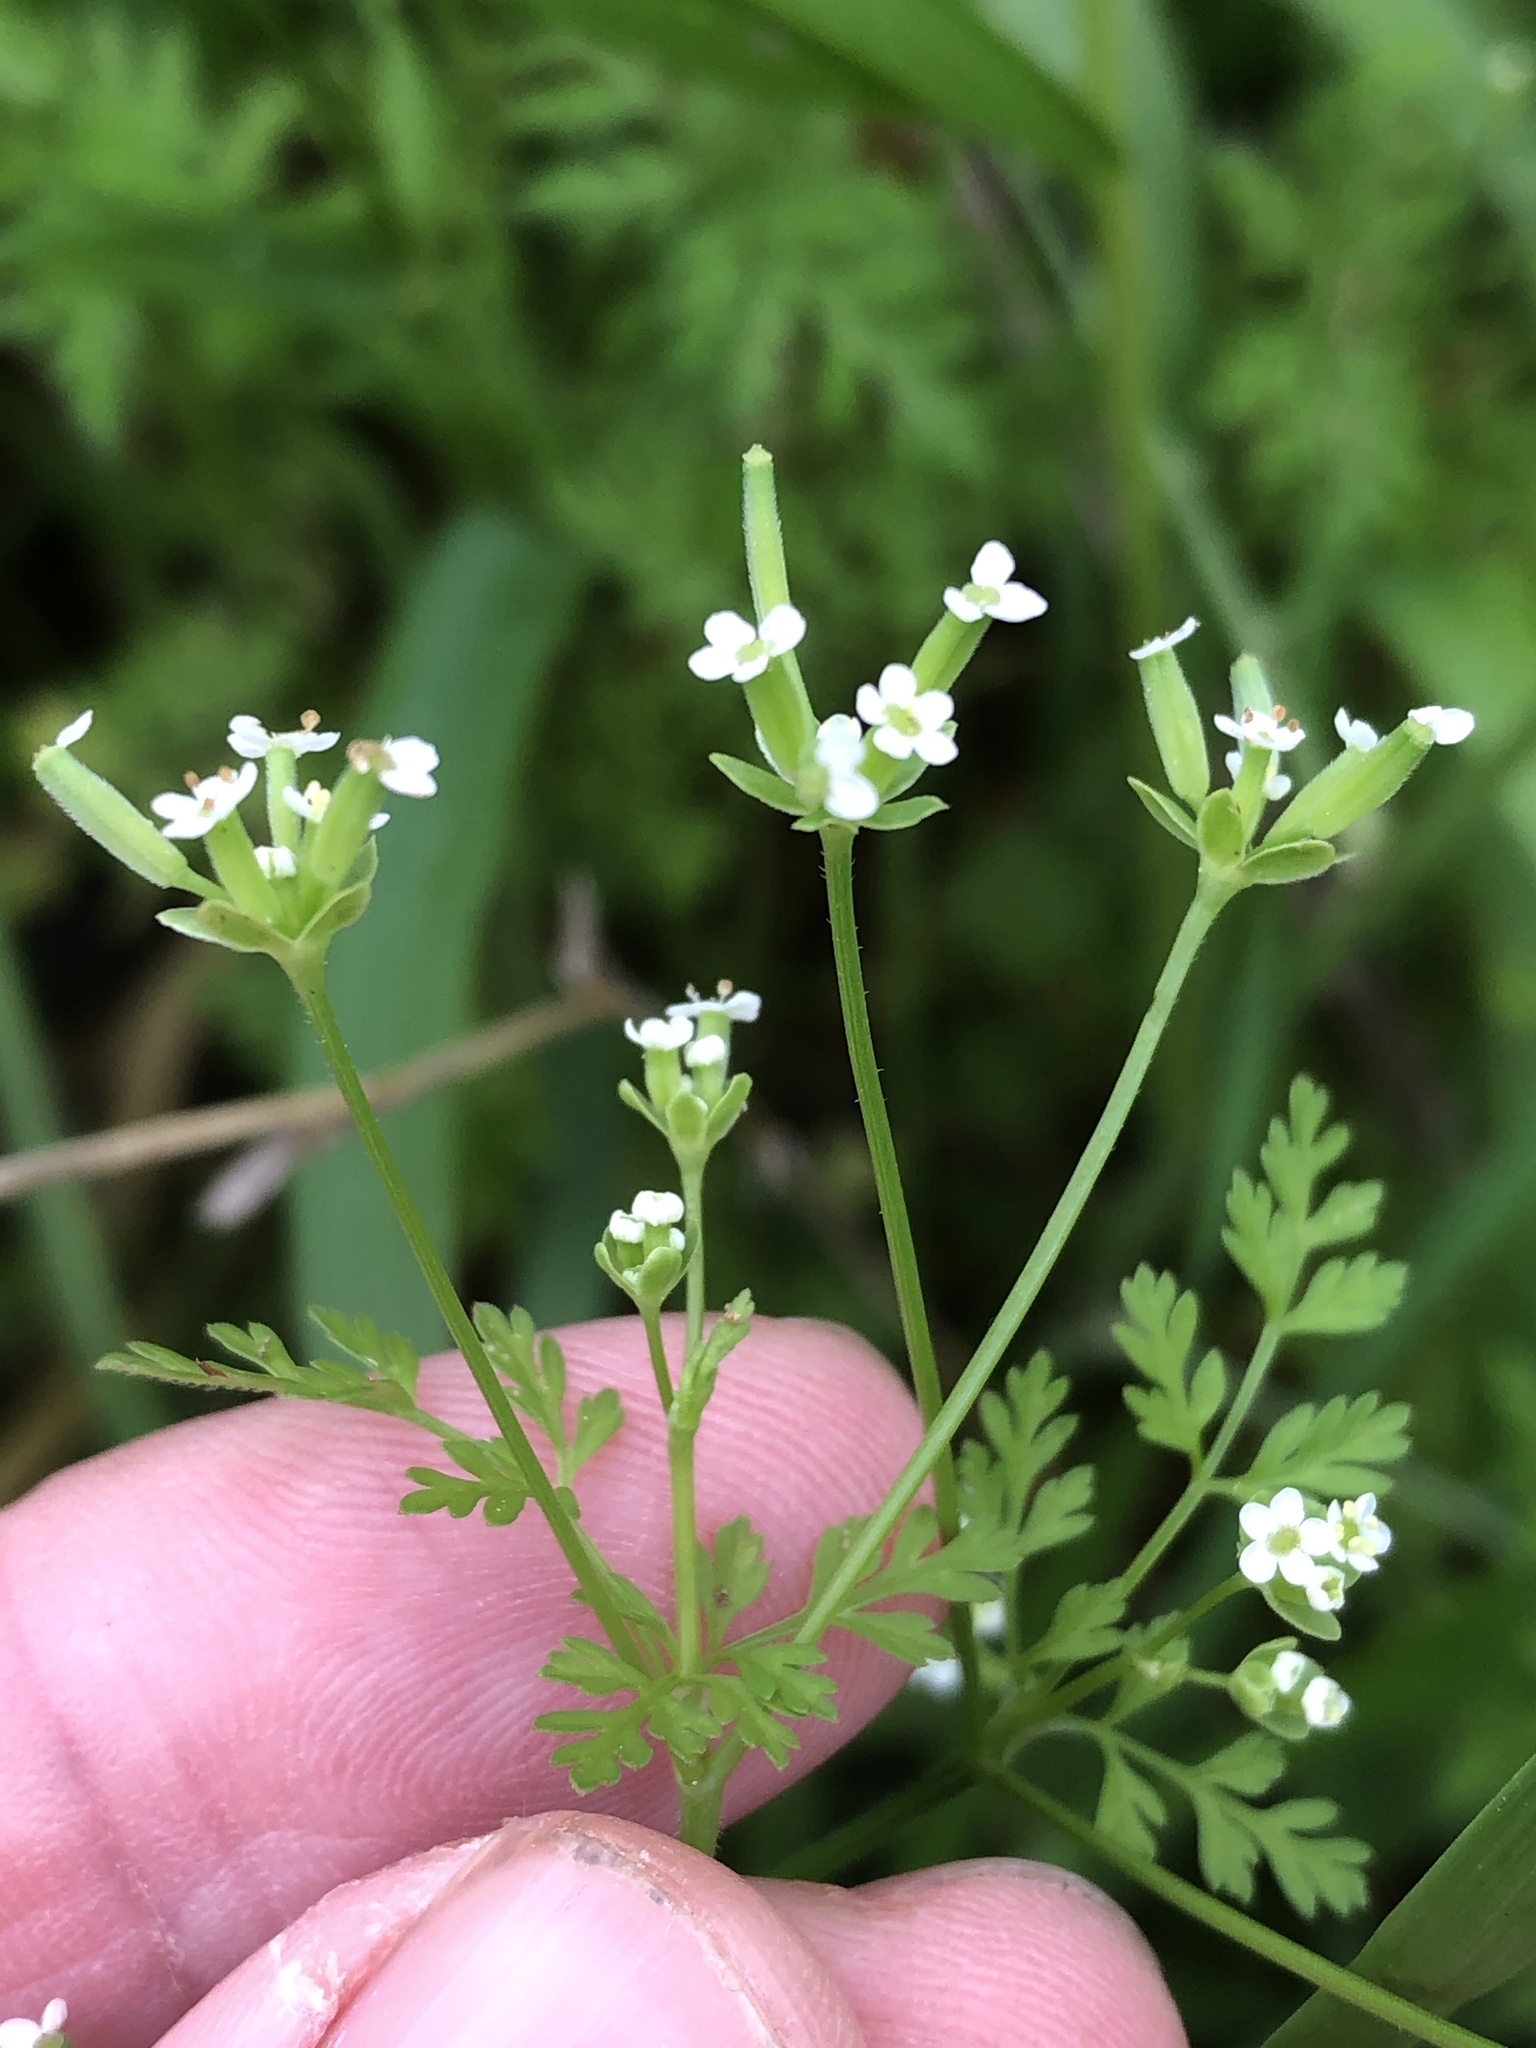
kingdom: Plantae
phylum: Tracheophyta
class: Magnoliopsida
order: Apiales
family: Apiaceae
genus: Chaerophyllum
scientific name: Chaerophyllum tainturieri
